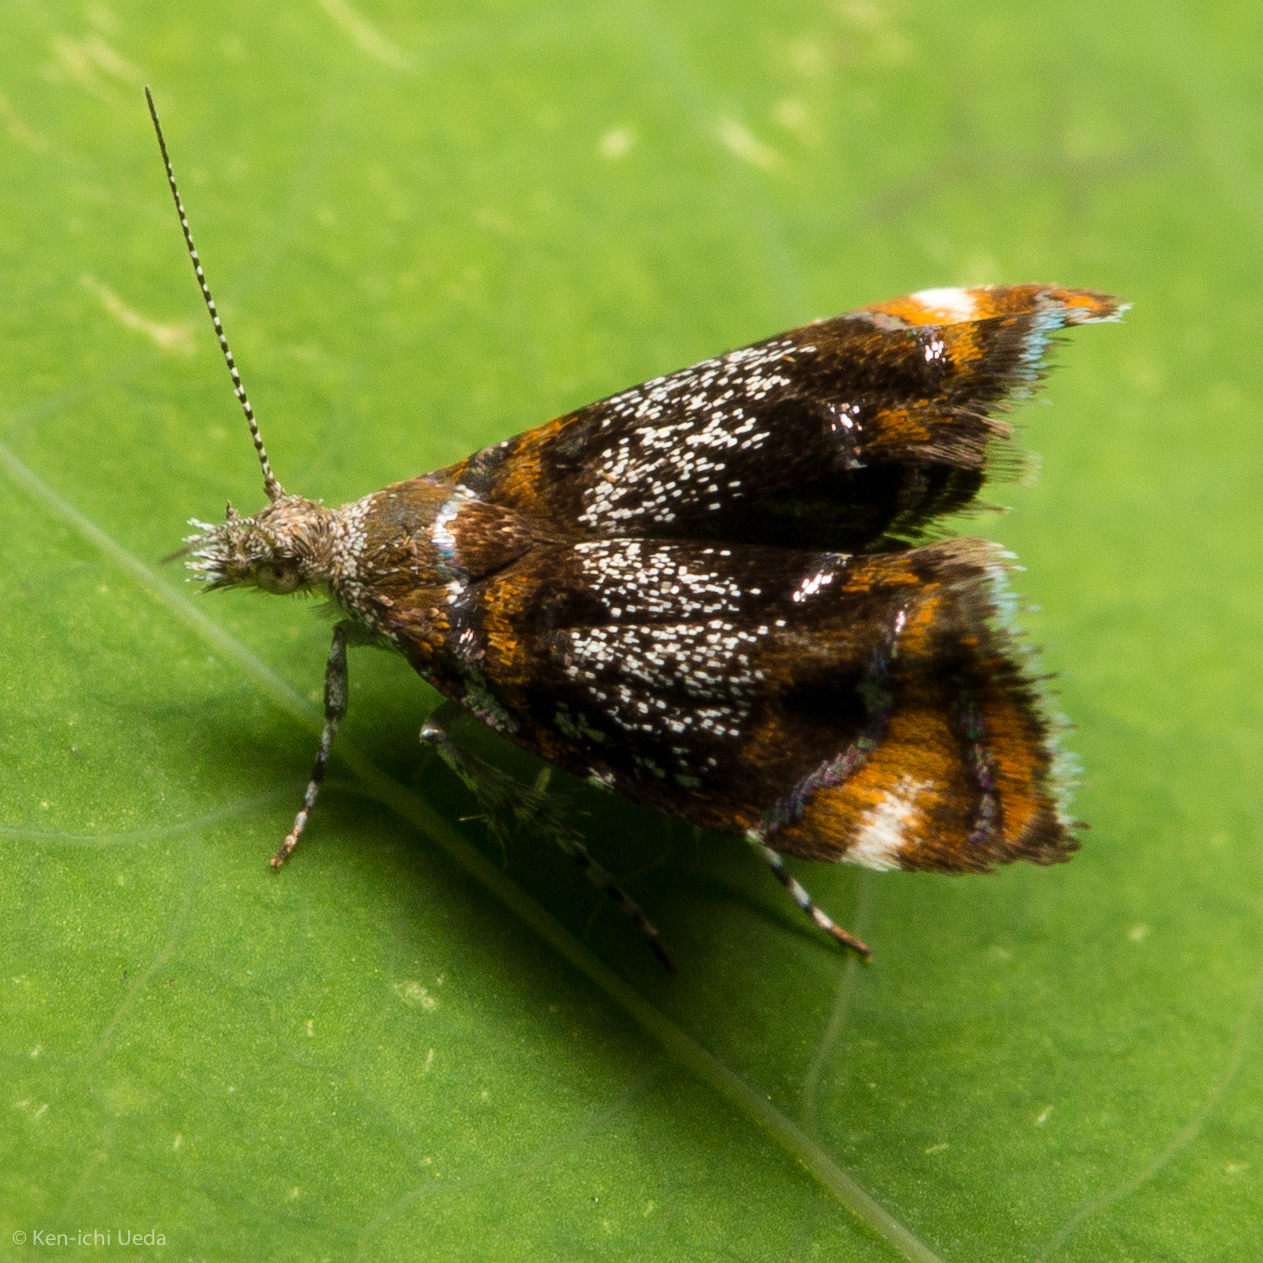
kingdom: Animalia
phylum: Arthropoda
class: Insecta
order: Lepidoptera
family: Choreutidae
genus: Prochoreutis
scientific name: Prochoreutis inflatella
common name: Skullcap skeletonizer moth
